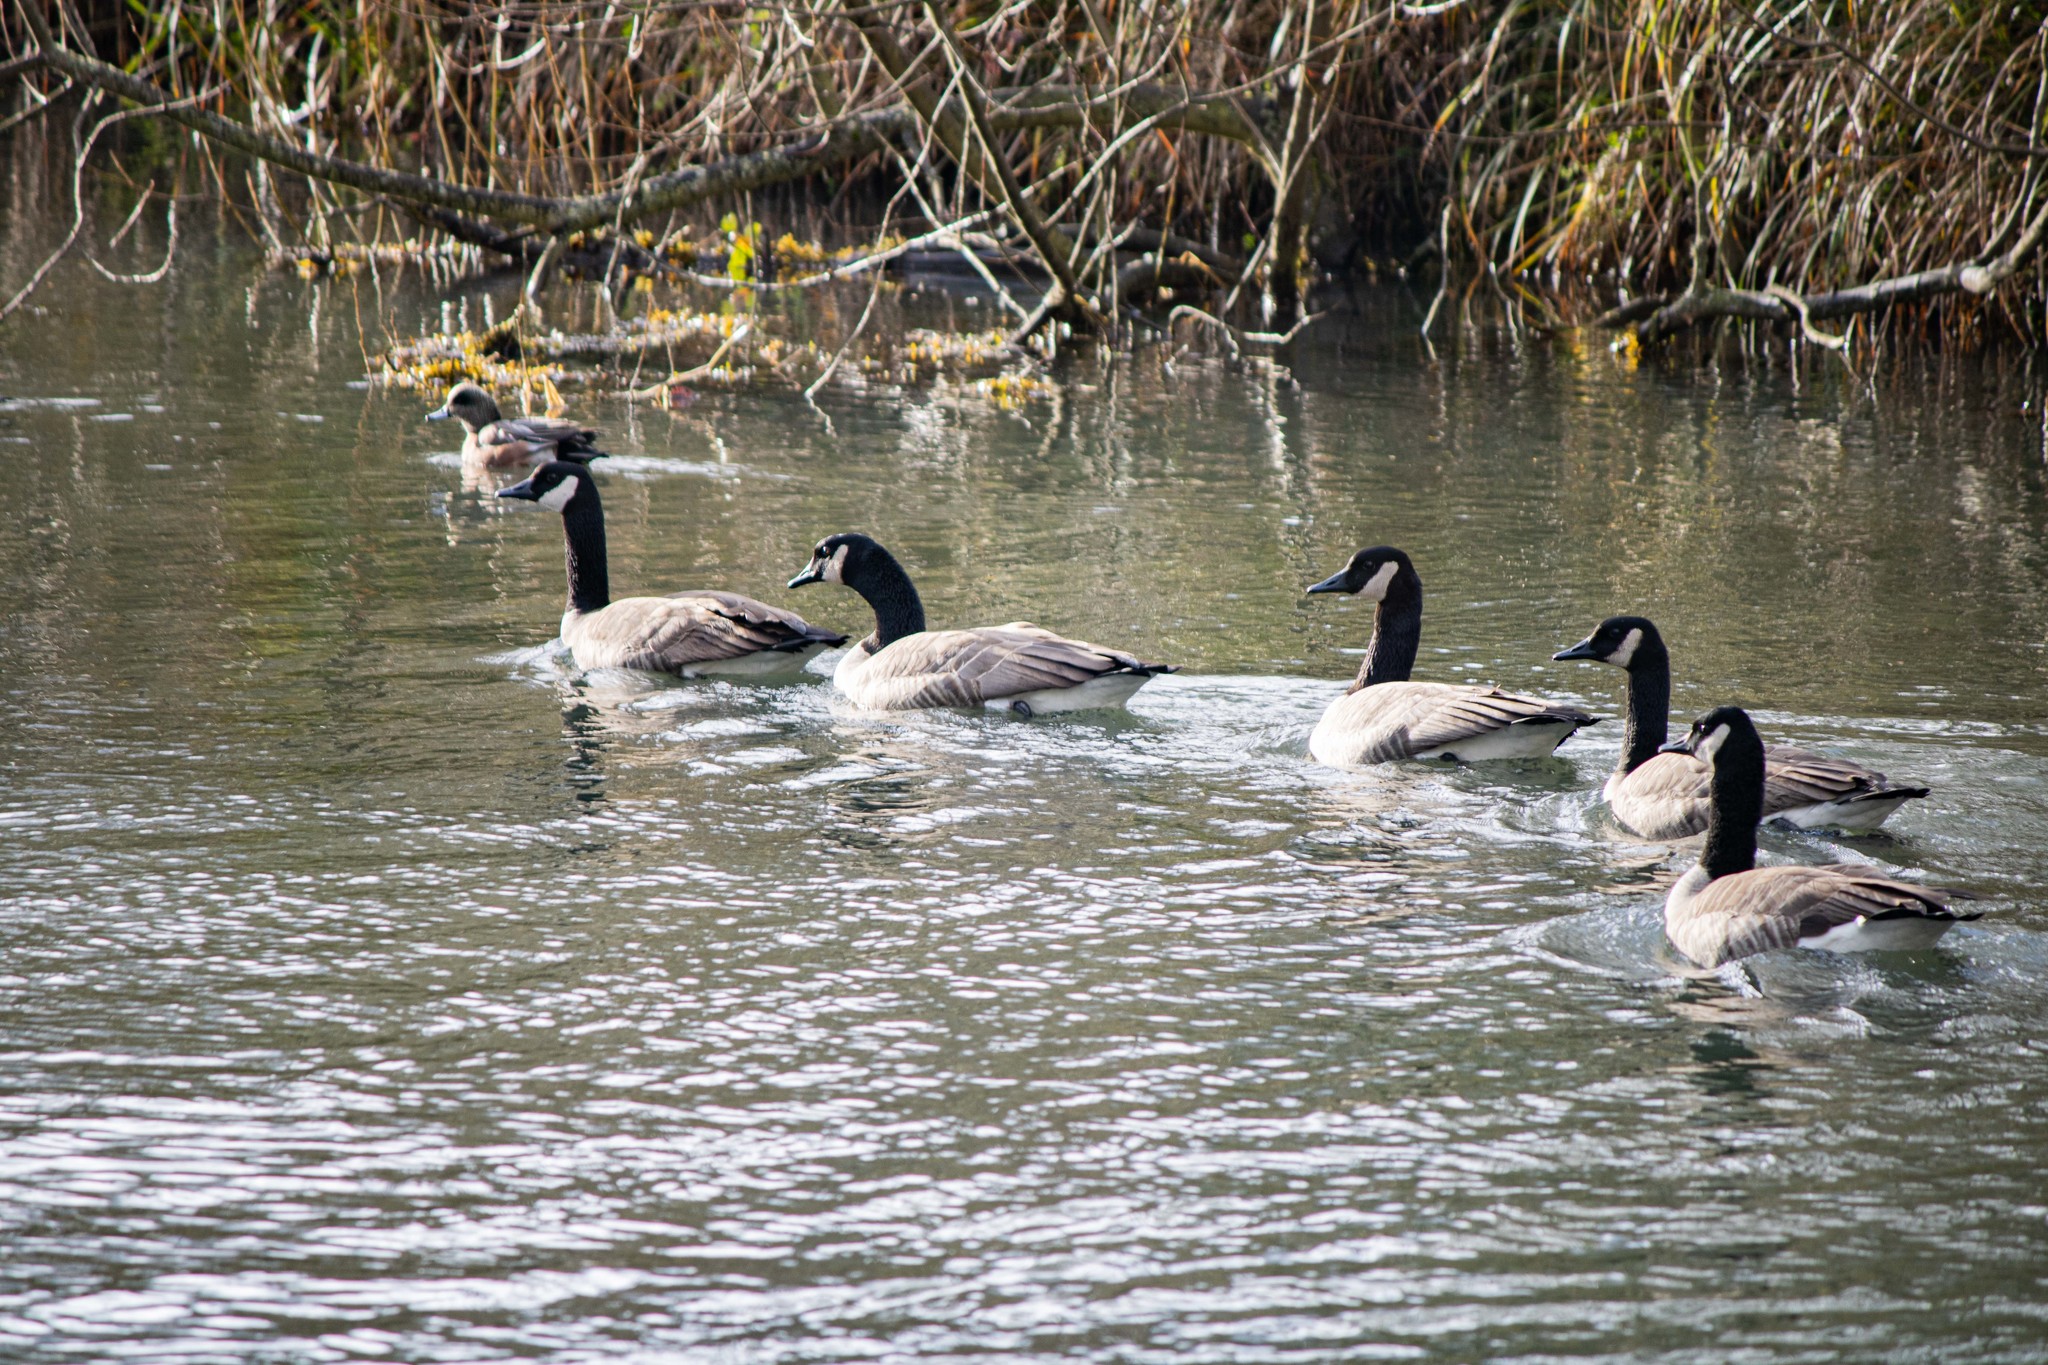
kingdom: Animalia
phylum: Chordata
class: Aves
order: Anseriformes
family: Anatidae
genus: Branta
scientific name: Branta canadensis
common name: Canada goose
